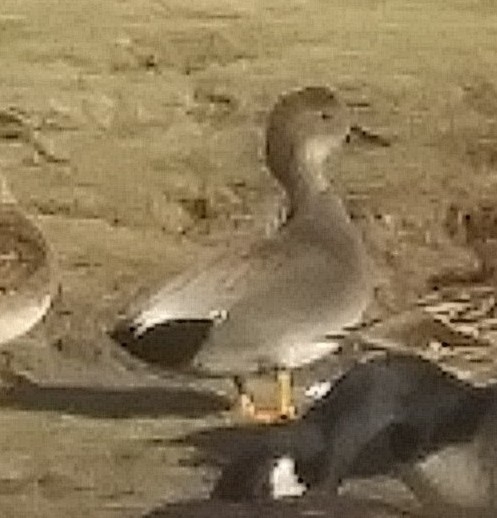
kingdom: Animalia
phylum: Chordata
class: Aves
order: Anseriformes
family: Anatidae
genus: Mareca
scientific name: Mareca strepera
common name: Gadwall
